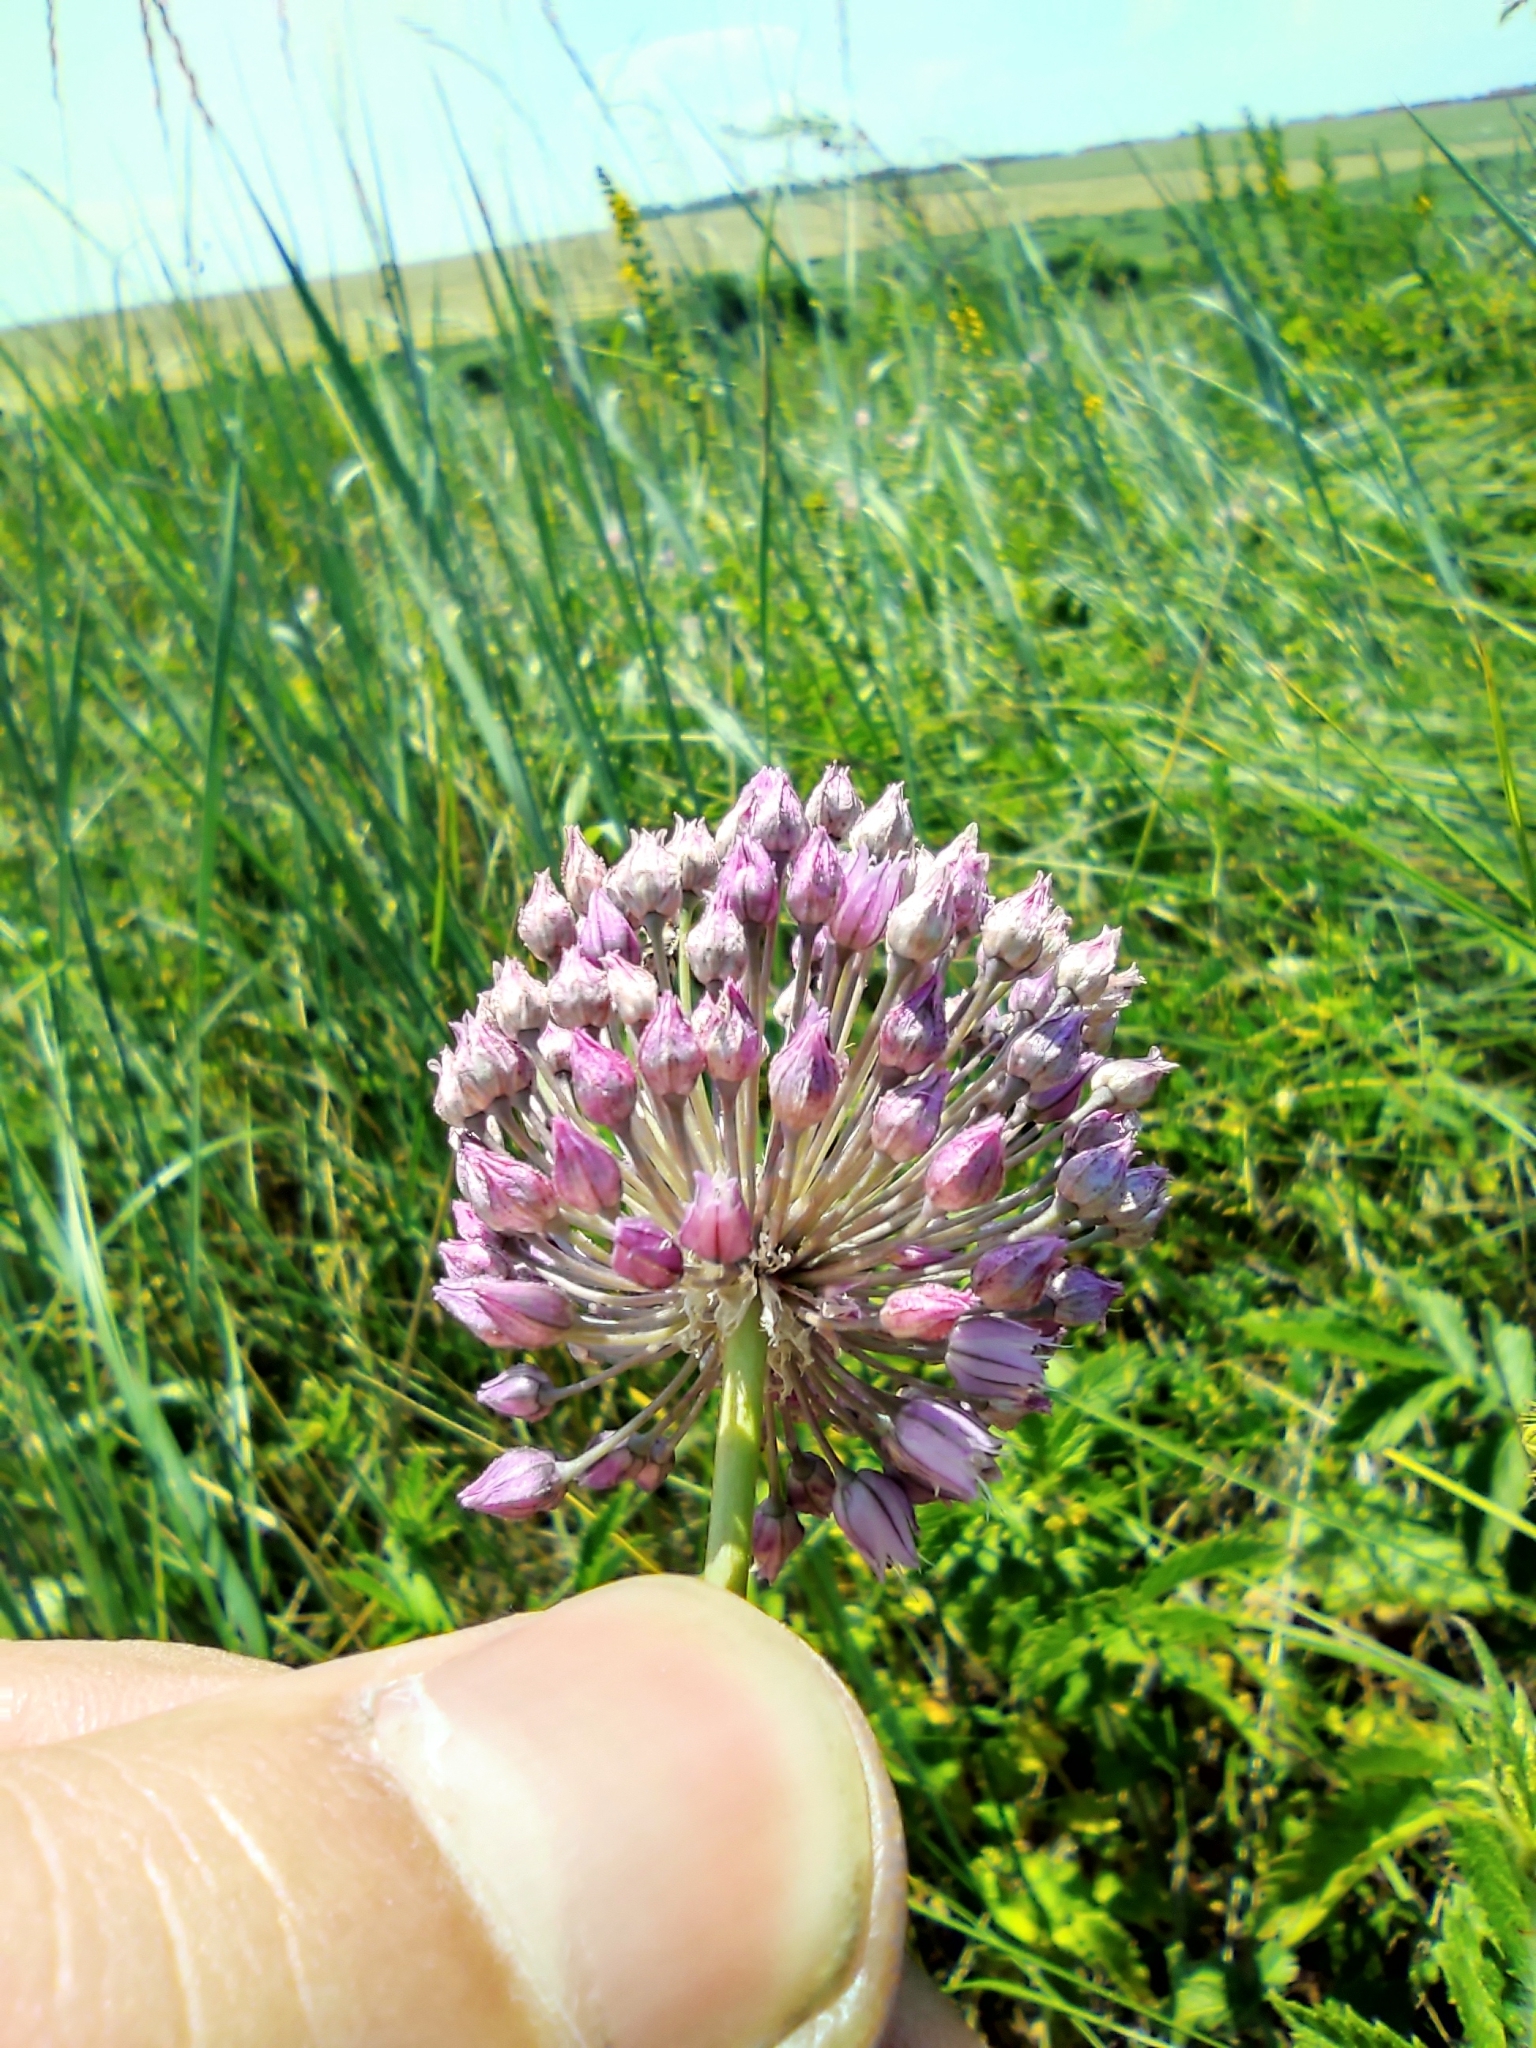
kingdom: Plantae
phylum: Tracheophyta
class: Liliopsida
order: Asparagales
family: Amaryllidaceae
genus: Allium
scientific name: Allium rotundum
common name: Sand leek
